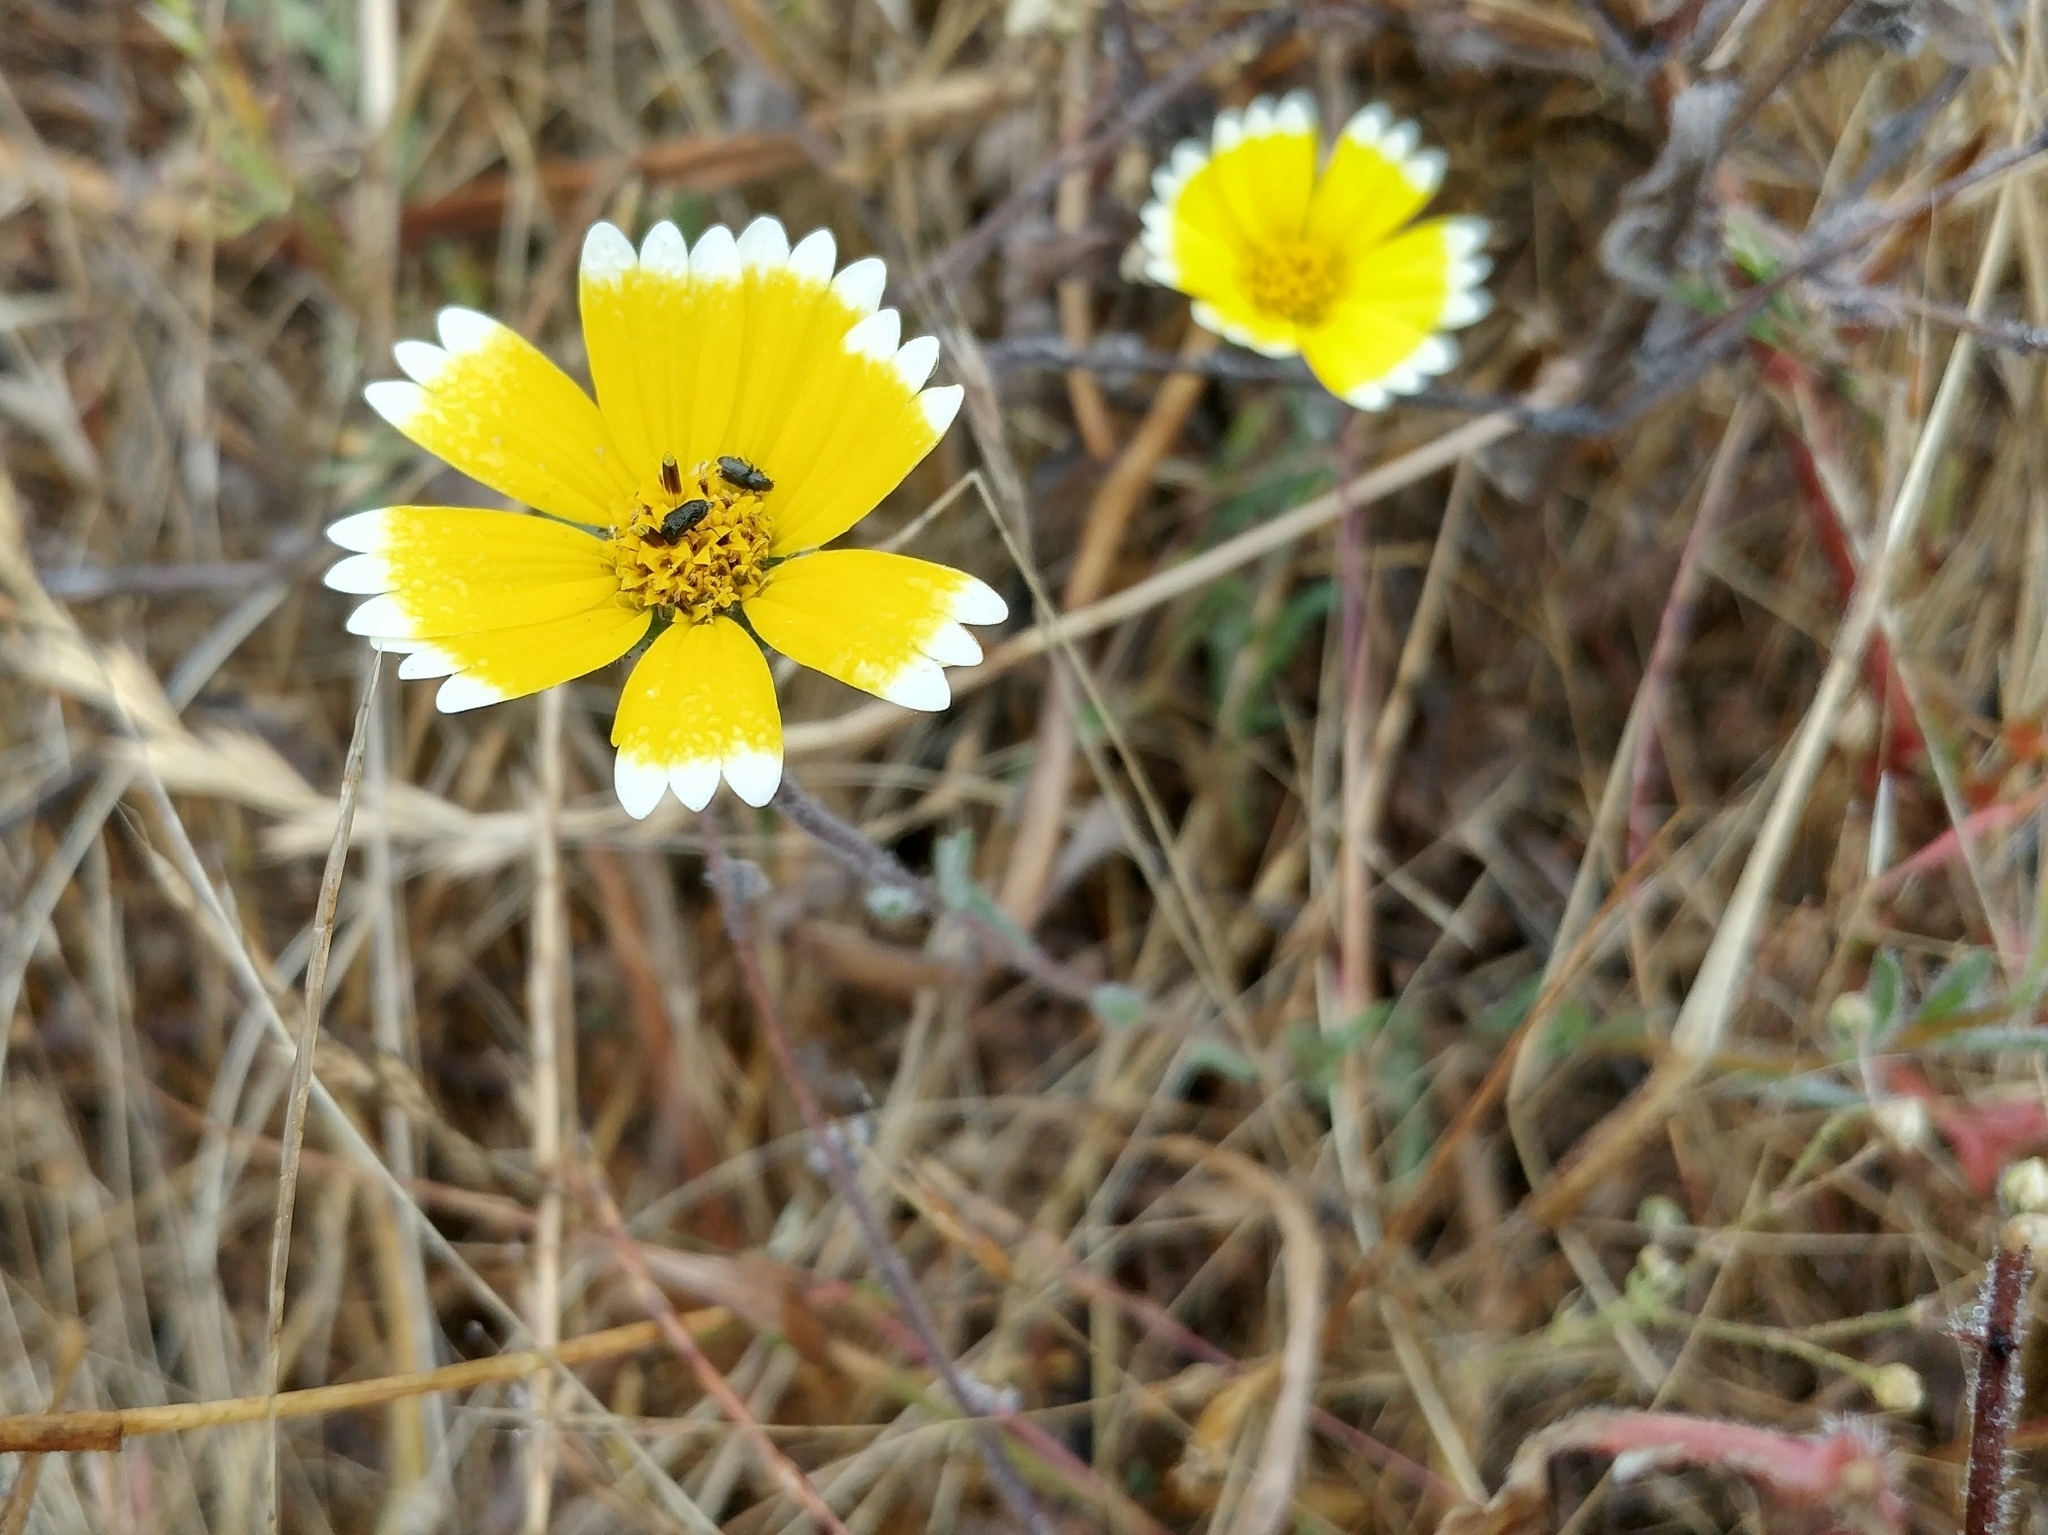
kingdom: Plantae
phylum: Tracheophyta
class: Magnoliopsida
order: Asterales
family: Asteraceae
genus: Layia
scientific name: Layia platyglossa
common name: Tidy-tips
